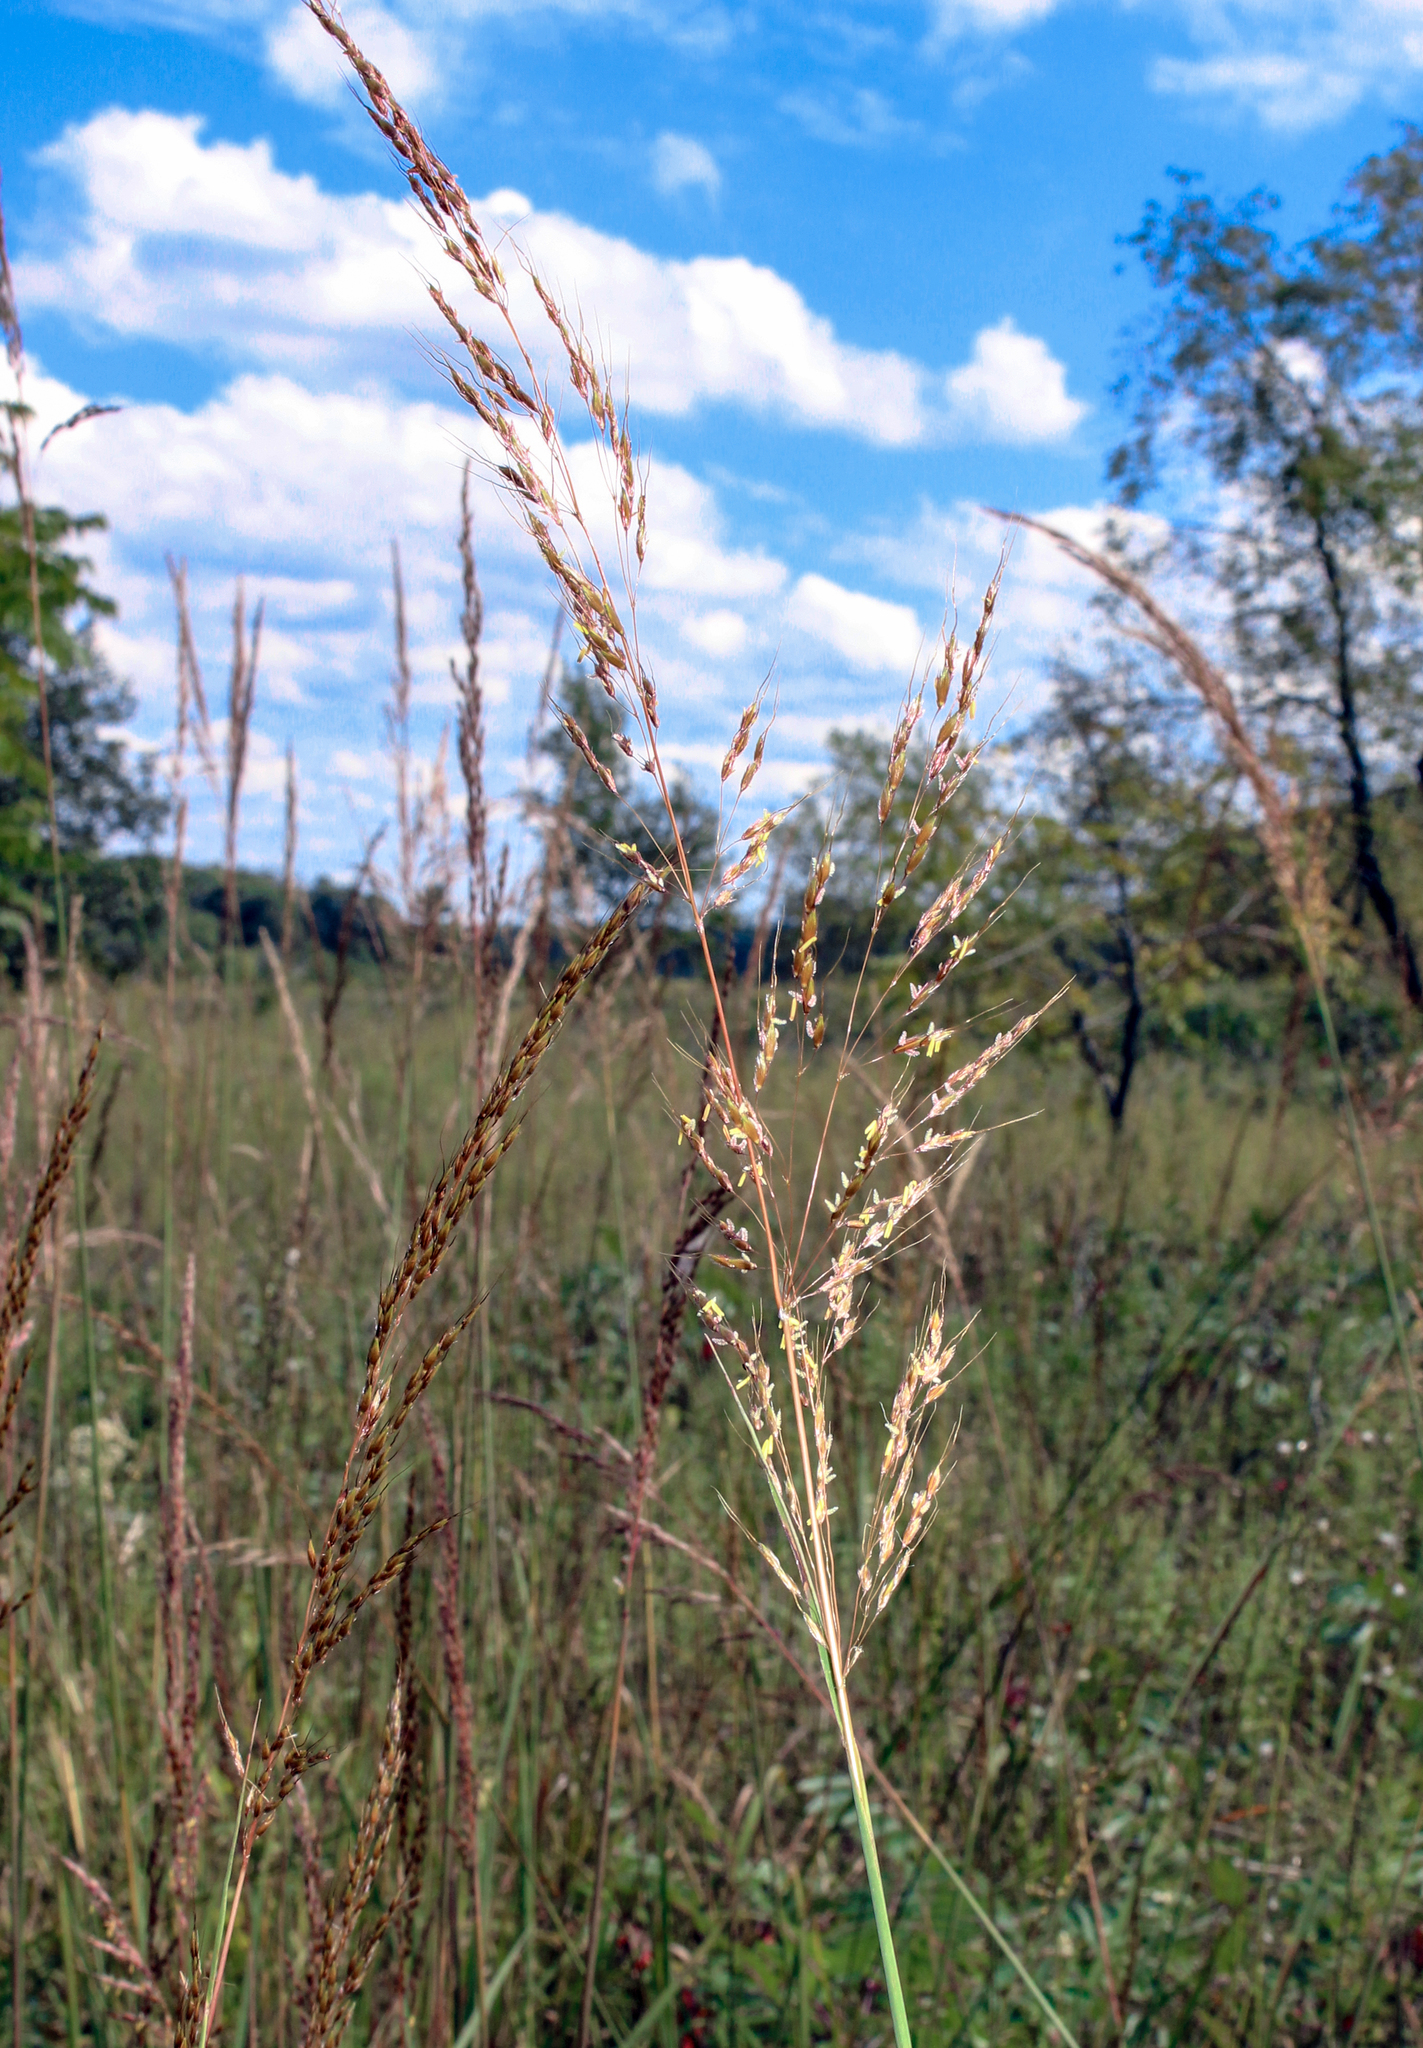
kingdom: Plantae
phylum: Tracheophyta
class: Liliopsida
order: Poales
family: Poaceae
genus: Sorghastrum
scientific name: Sorghastrum nutans
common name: Indian grass
